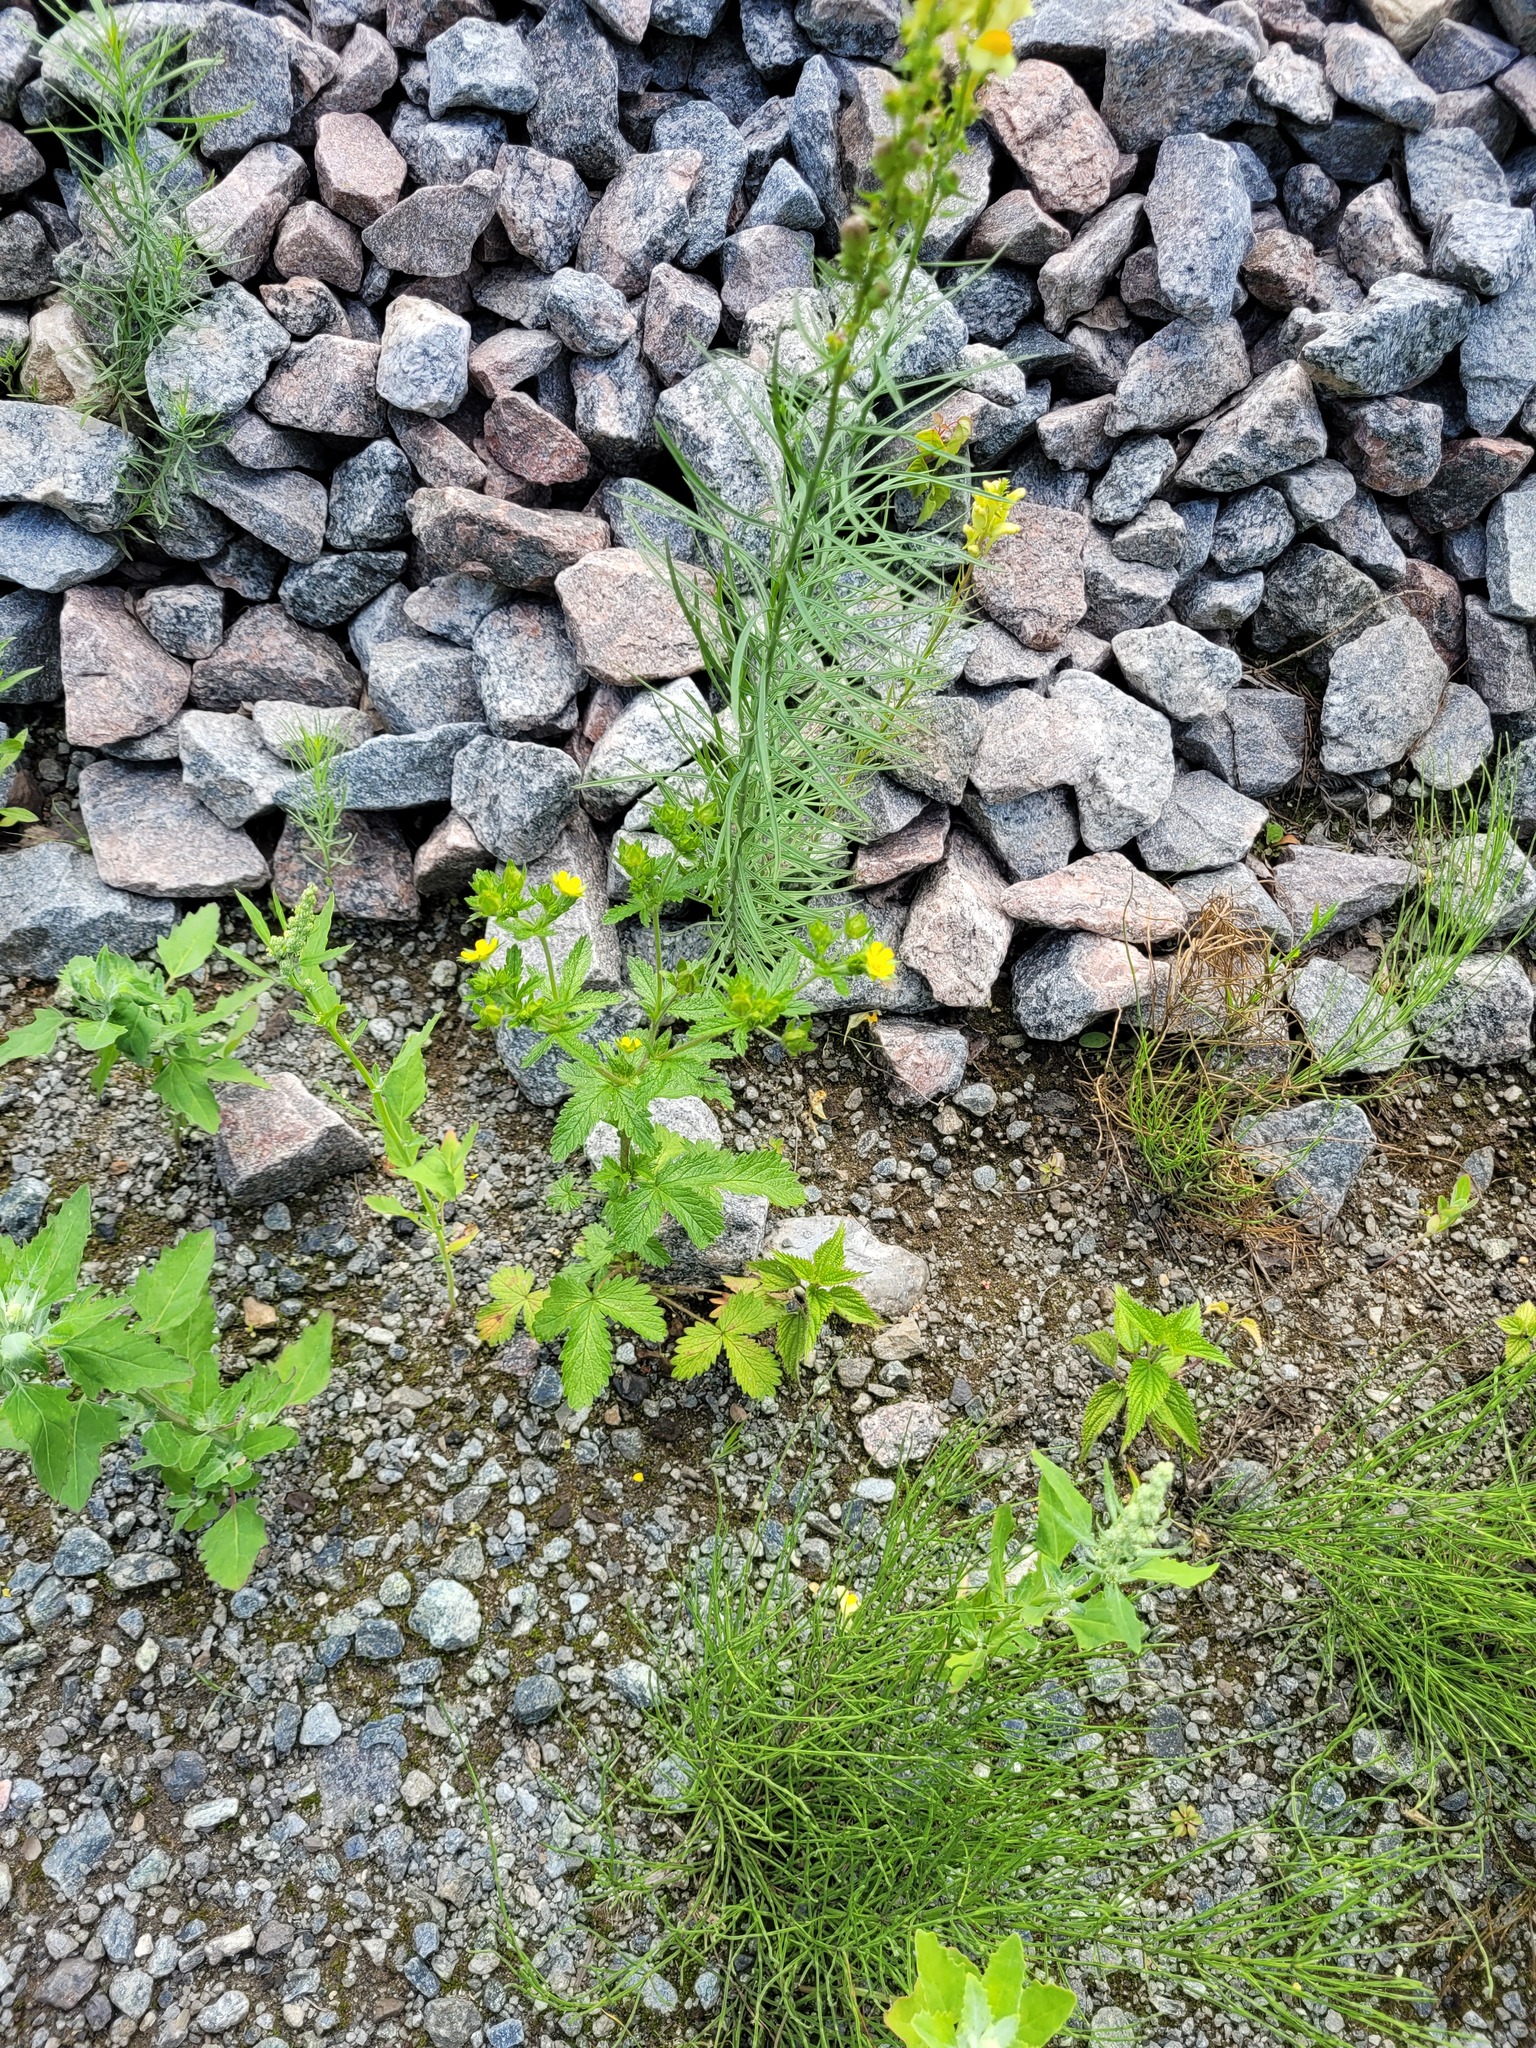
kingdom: Plantae
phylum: Tracheophyta
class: Magnoliopsida
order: Rosales
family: Rosaceae
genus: Potentilla
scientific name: Potentilla norvegica
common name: Ternate-leaved cinquefoil
